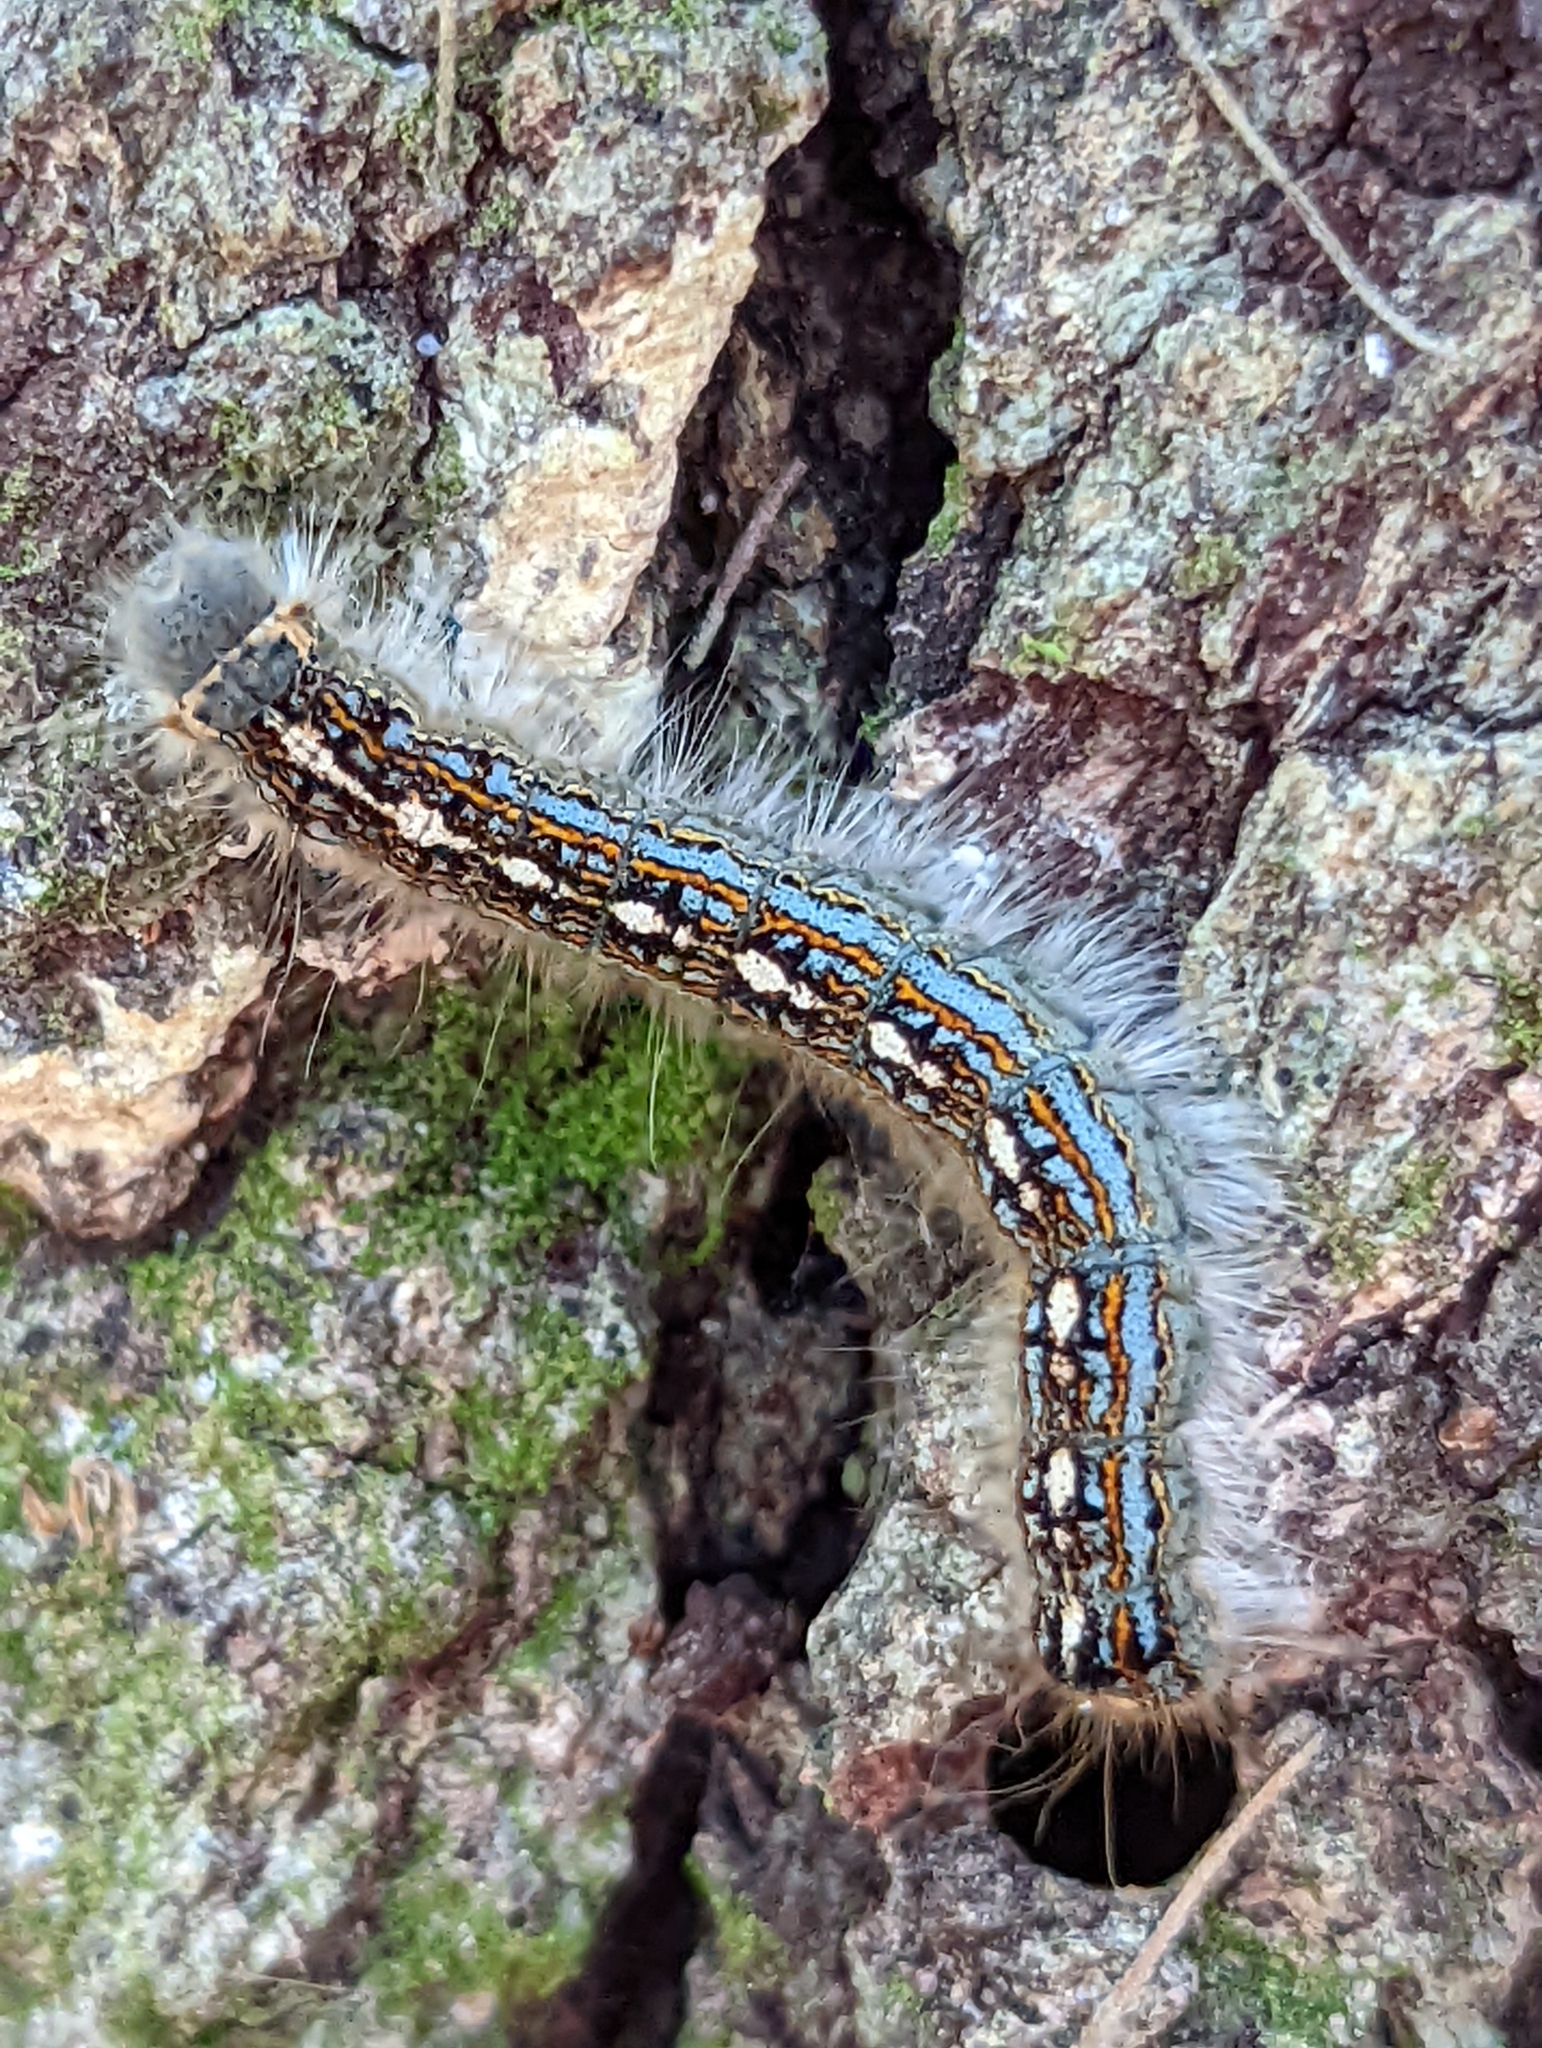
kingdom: Animalia
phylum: Arthropoda
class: Insecta
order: Lepidoptera
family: Lasiocampidae
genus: Malacosoma
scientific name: Malacosoma disstria
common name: Forest tent caterpillar
